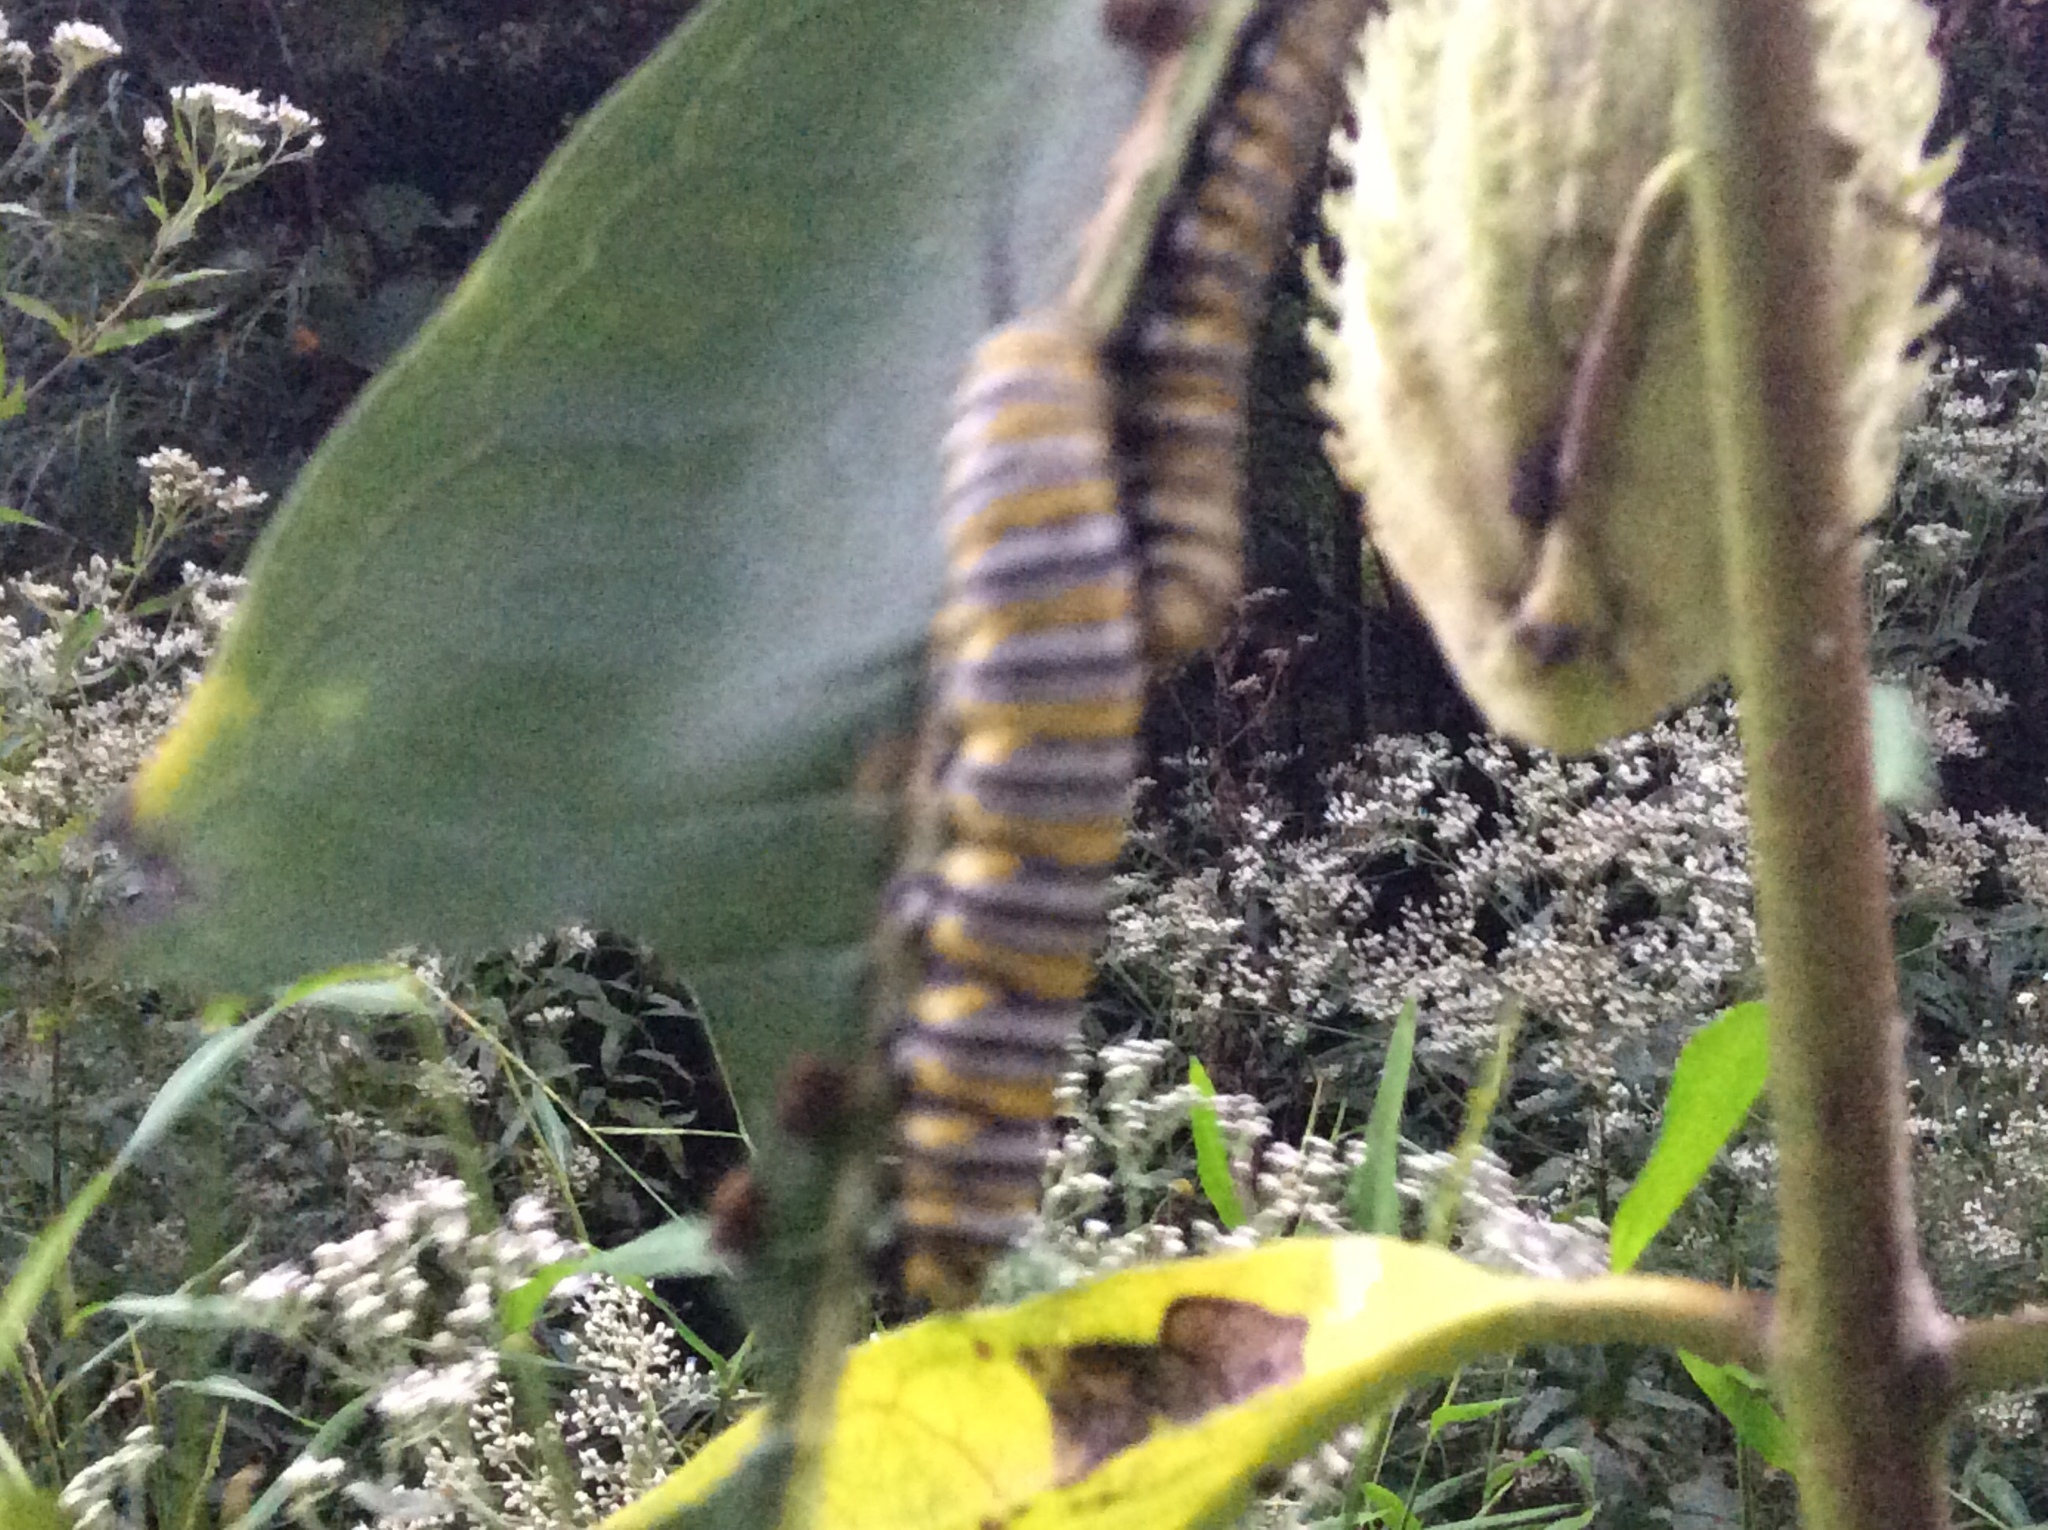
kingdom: Animalia
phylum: Arthropoda
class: Insecta
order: Lepidoptera
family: Nymphalidae
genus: Danaus
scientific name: Danaus plexippus
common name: Monarch
